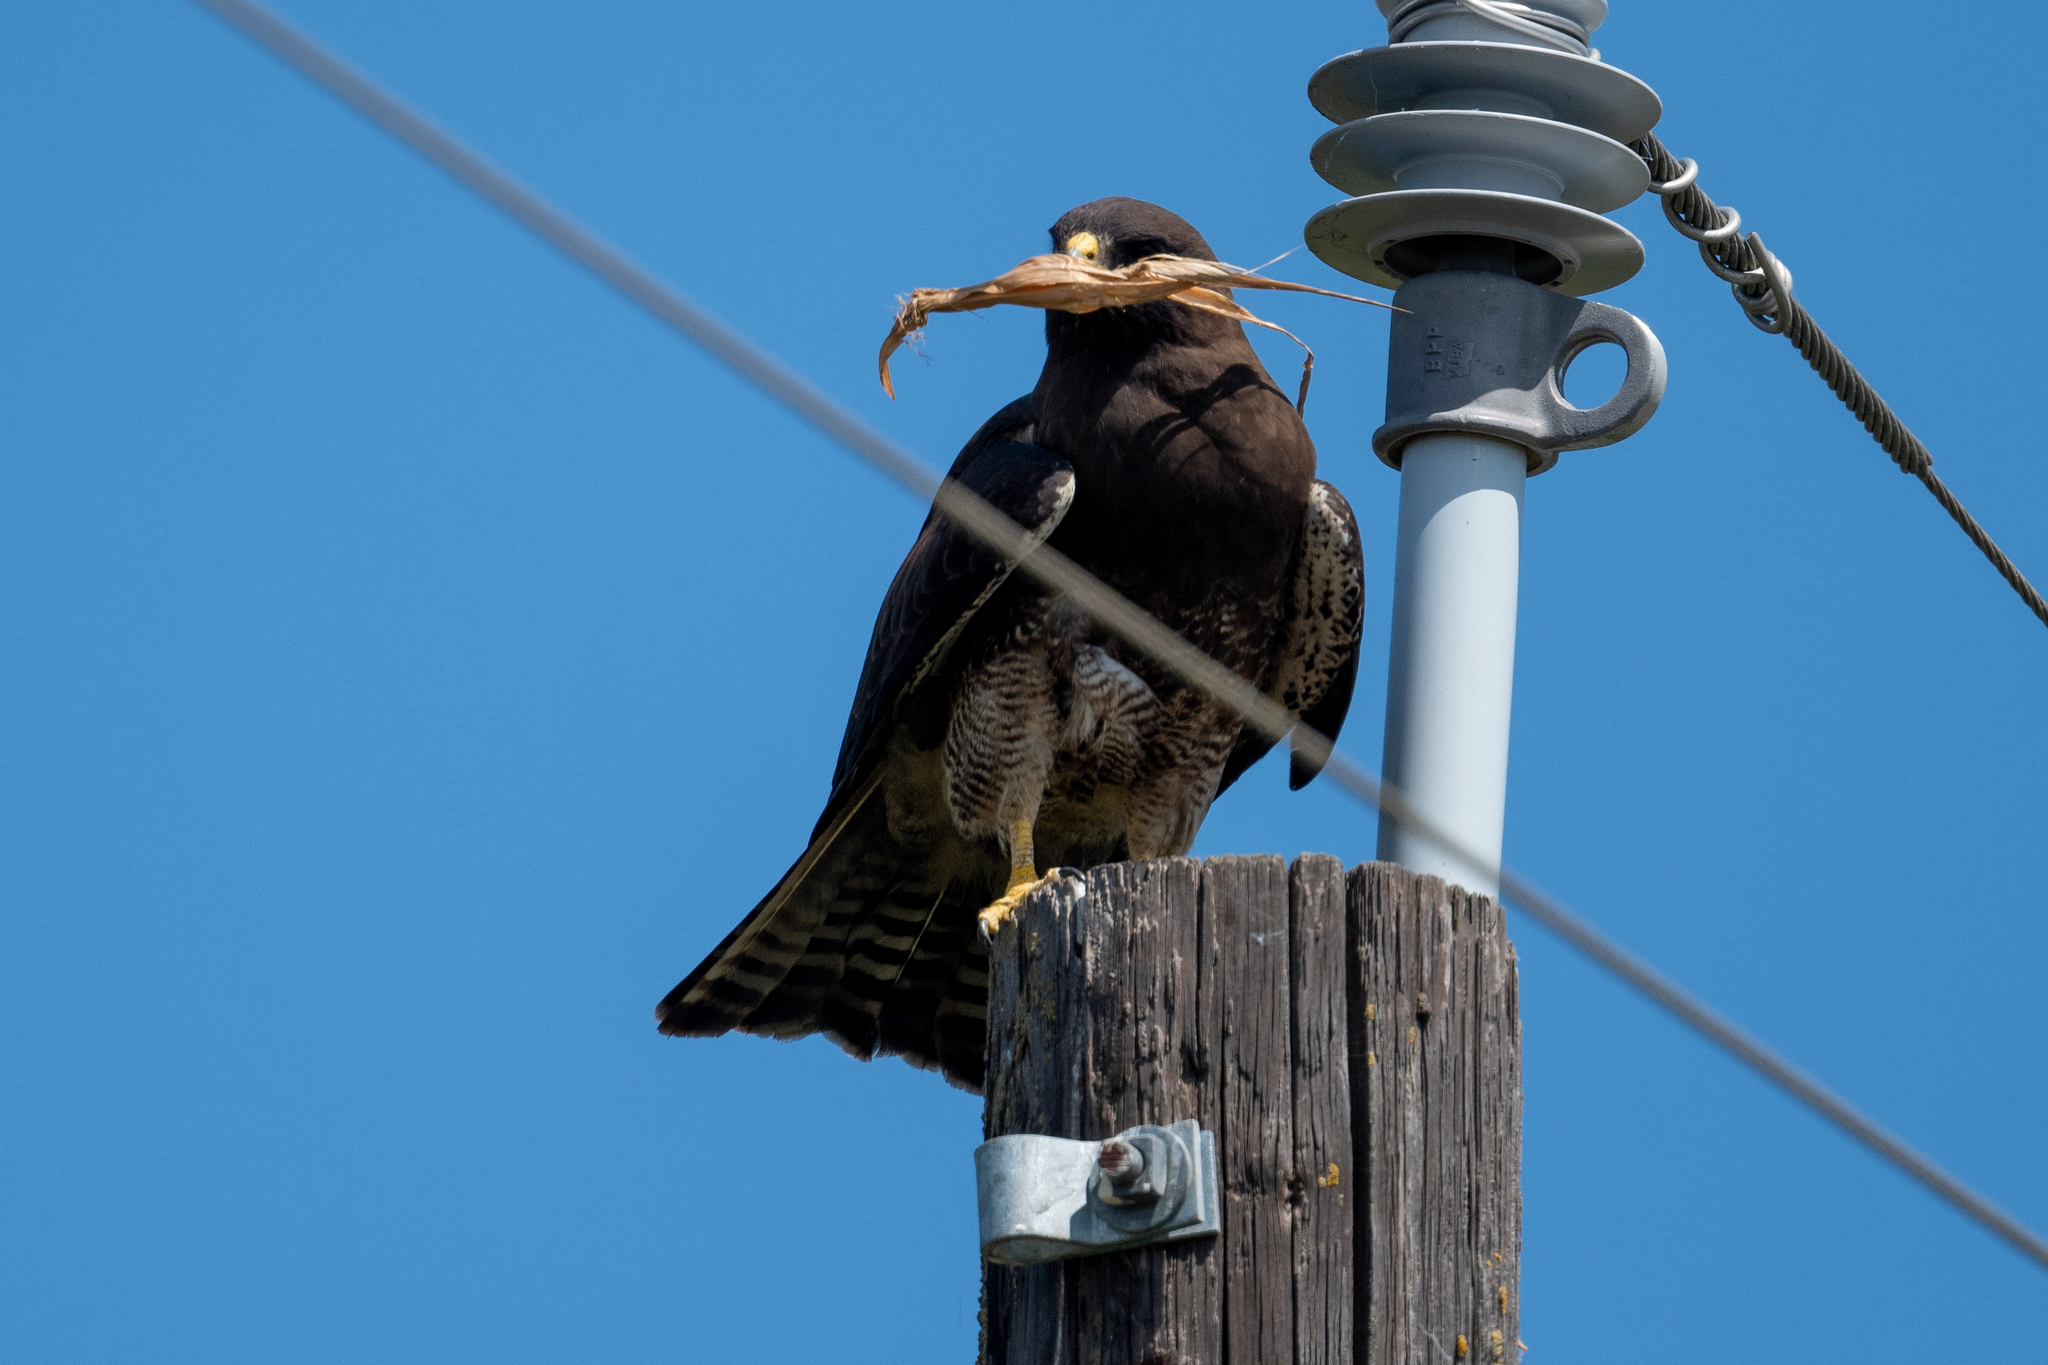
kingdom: Animalia
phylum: Chordata
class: Aves
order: Accipitriformes
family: Accipitridae
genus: Buteo
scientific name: Buteo swainsoni
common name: Swainson's hawk
